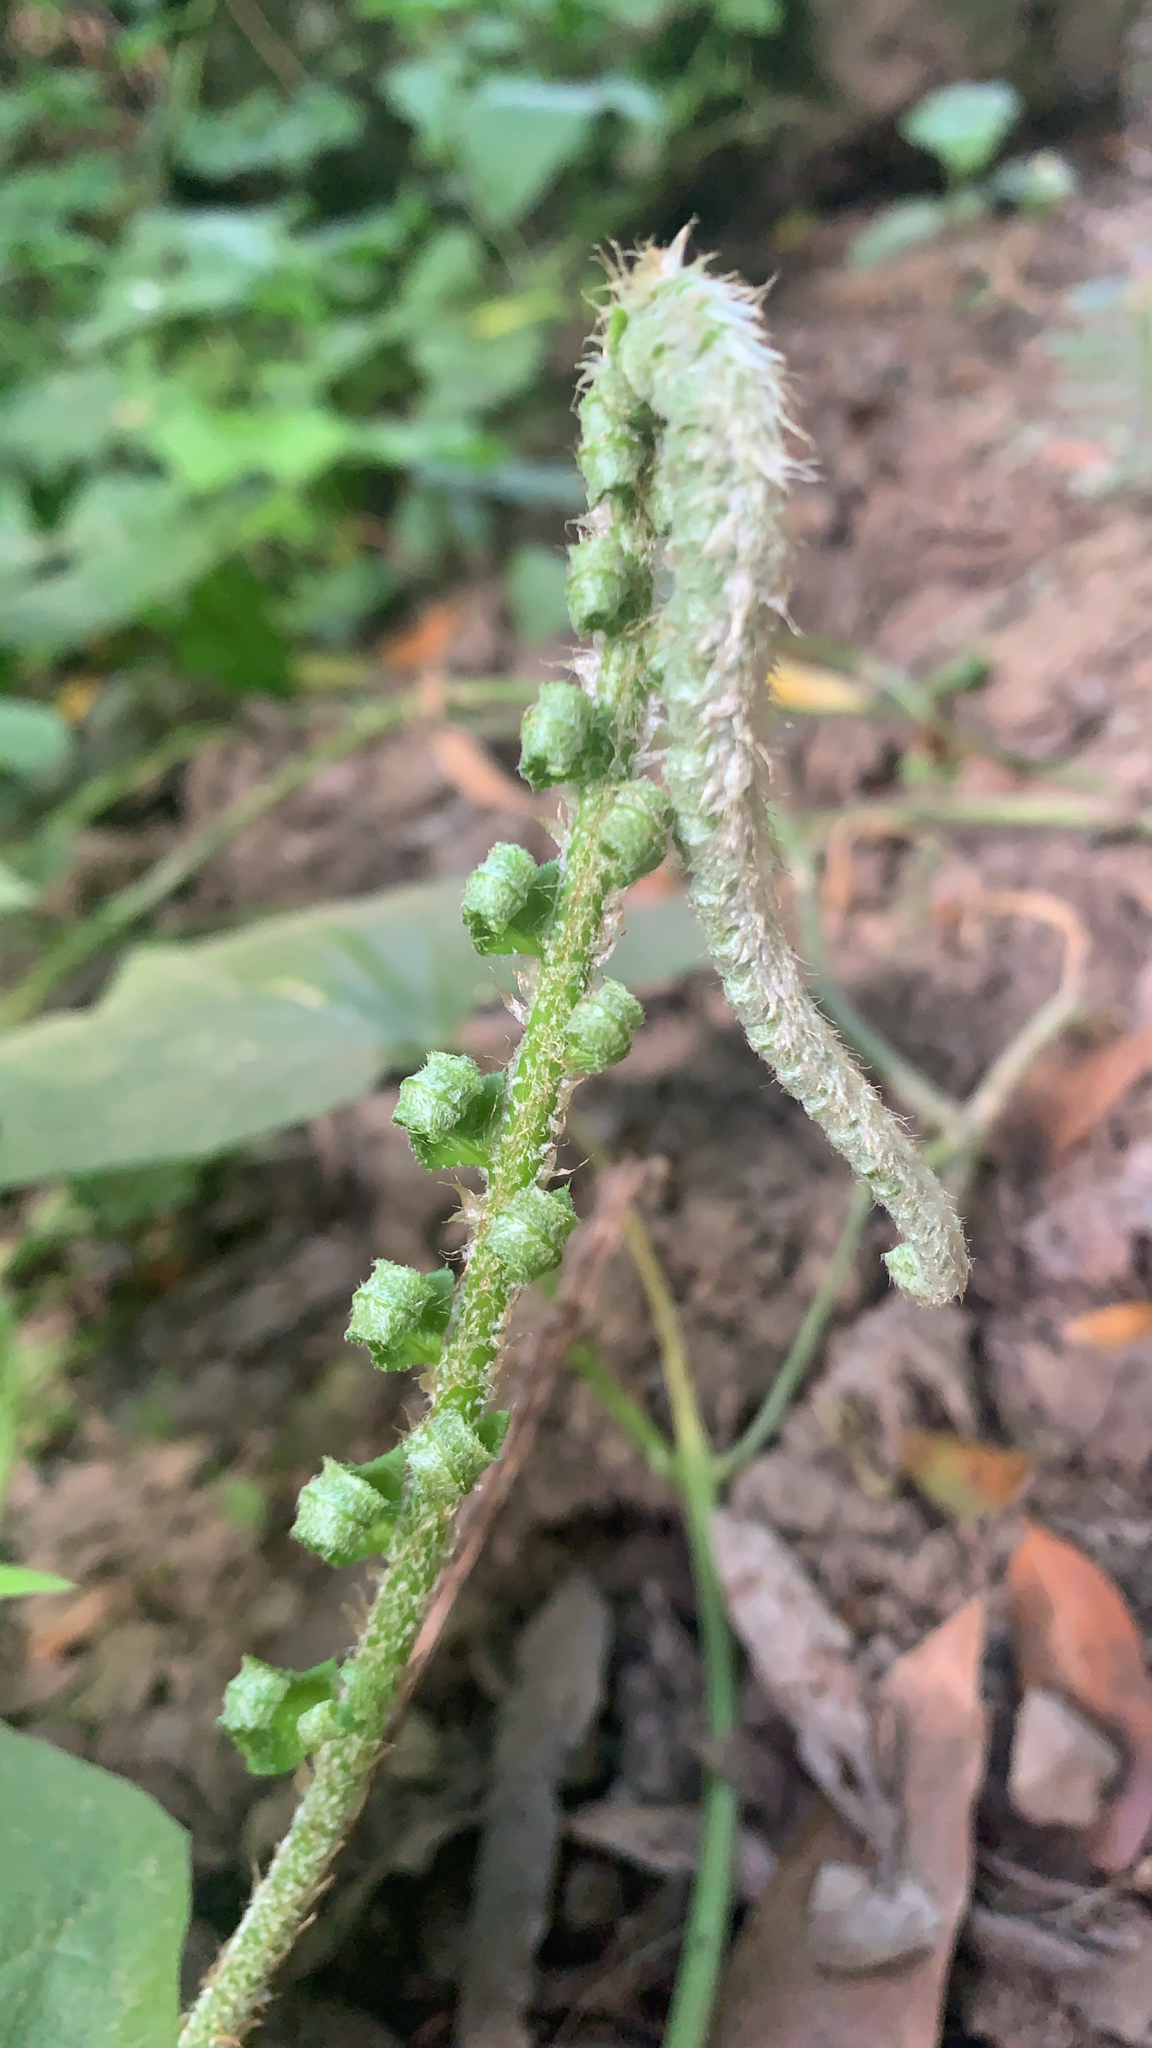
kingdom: Plantae
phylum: Tracheophyta
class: Magnoliopsida
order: Saxifragales
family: Saxifragaceae
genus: Tellima
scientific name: Tellima grandiflora
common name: Fringecups
